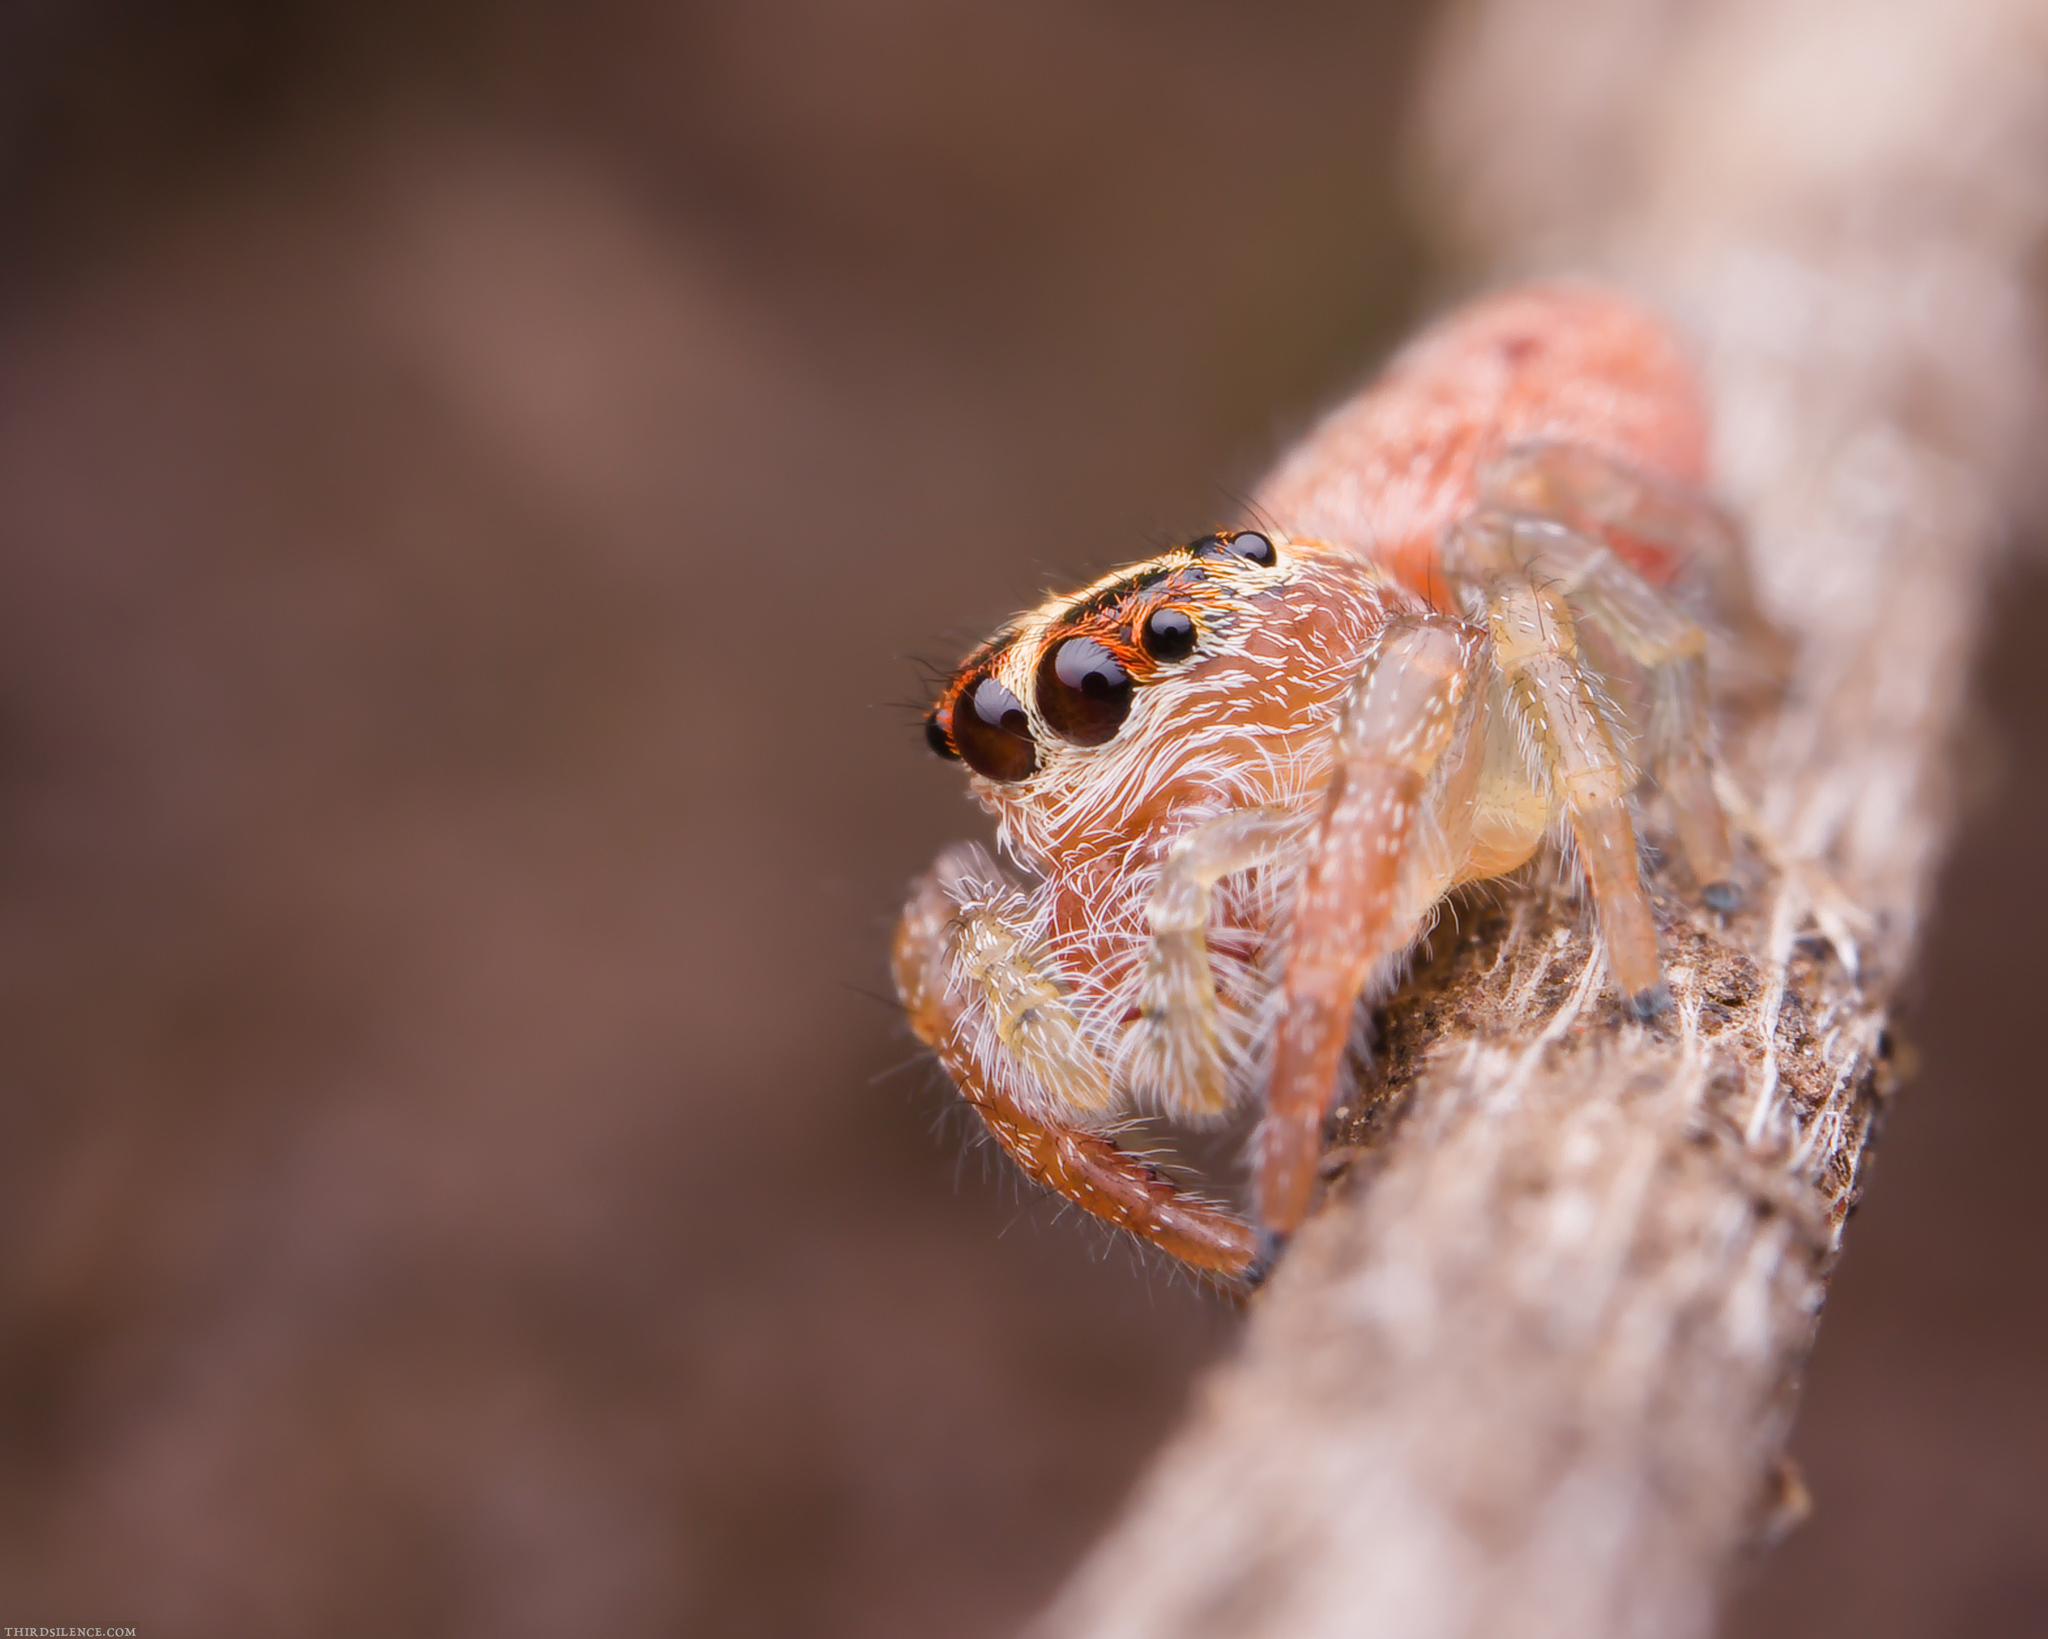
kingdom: Animalia
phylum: Arthropoda
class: Arachnida
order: Araneae
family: Salticidae
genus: Opisthoncus
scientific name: Opisthoncus nigrofemoratus
